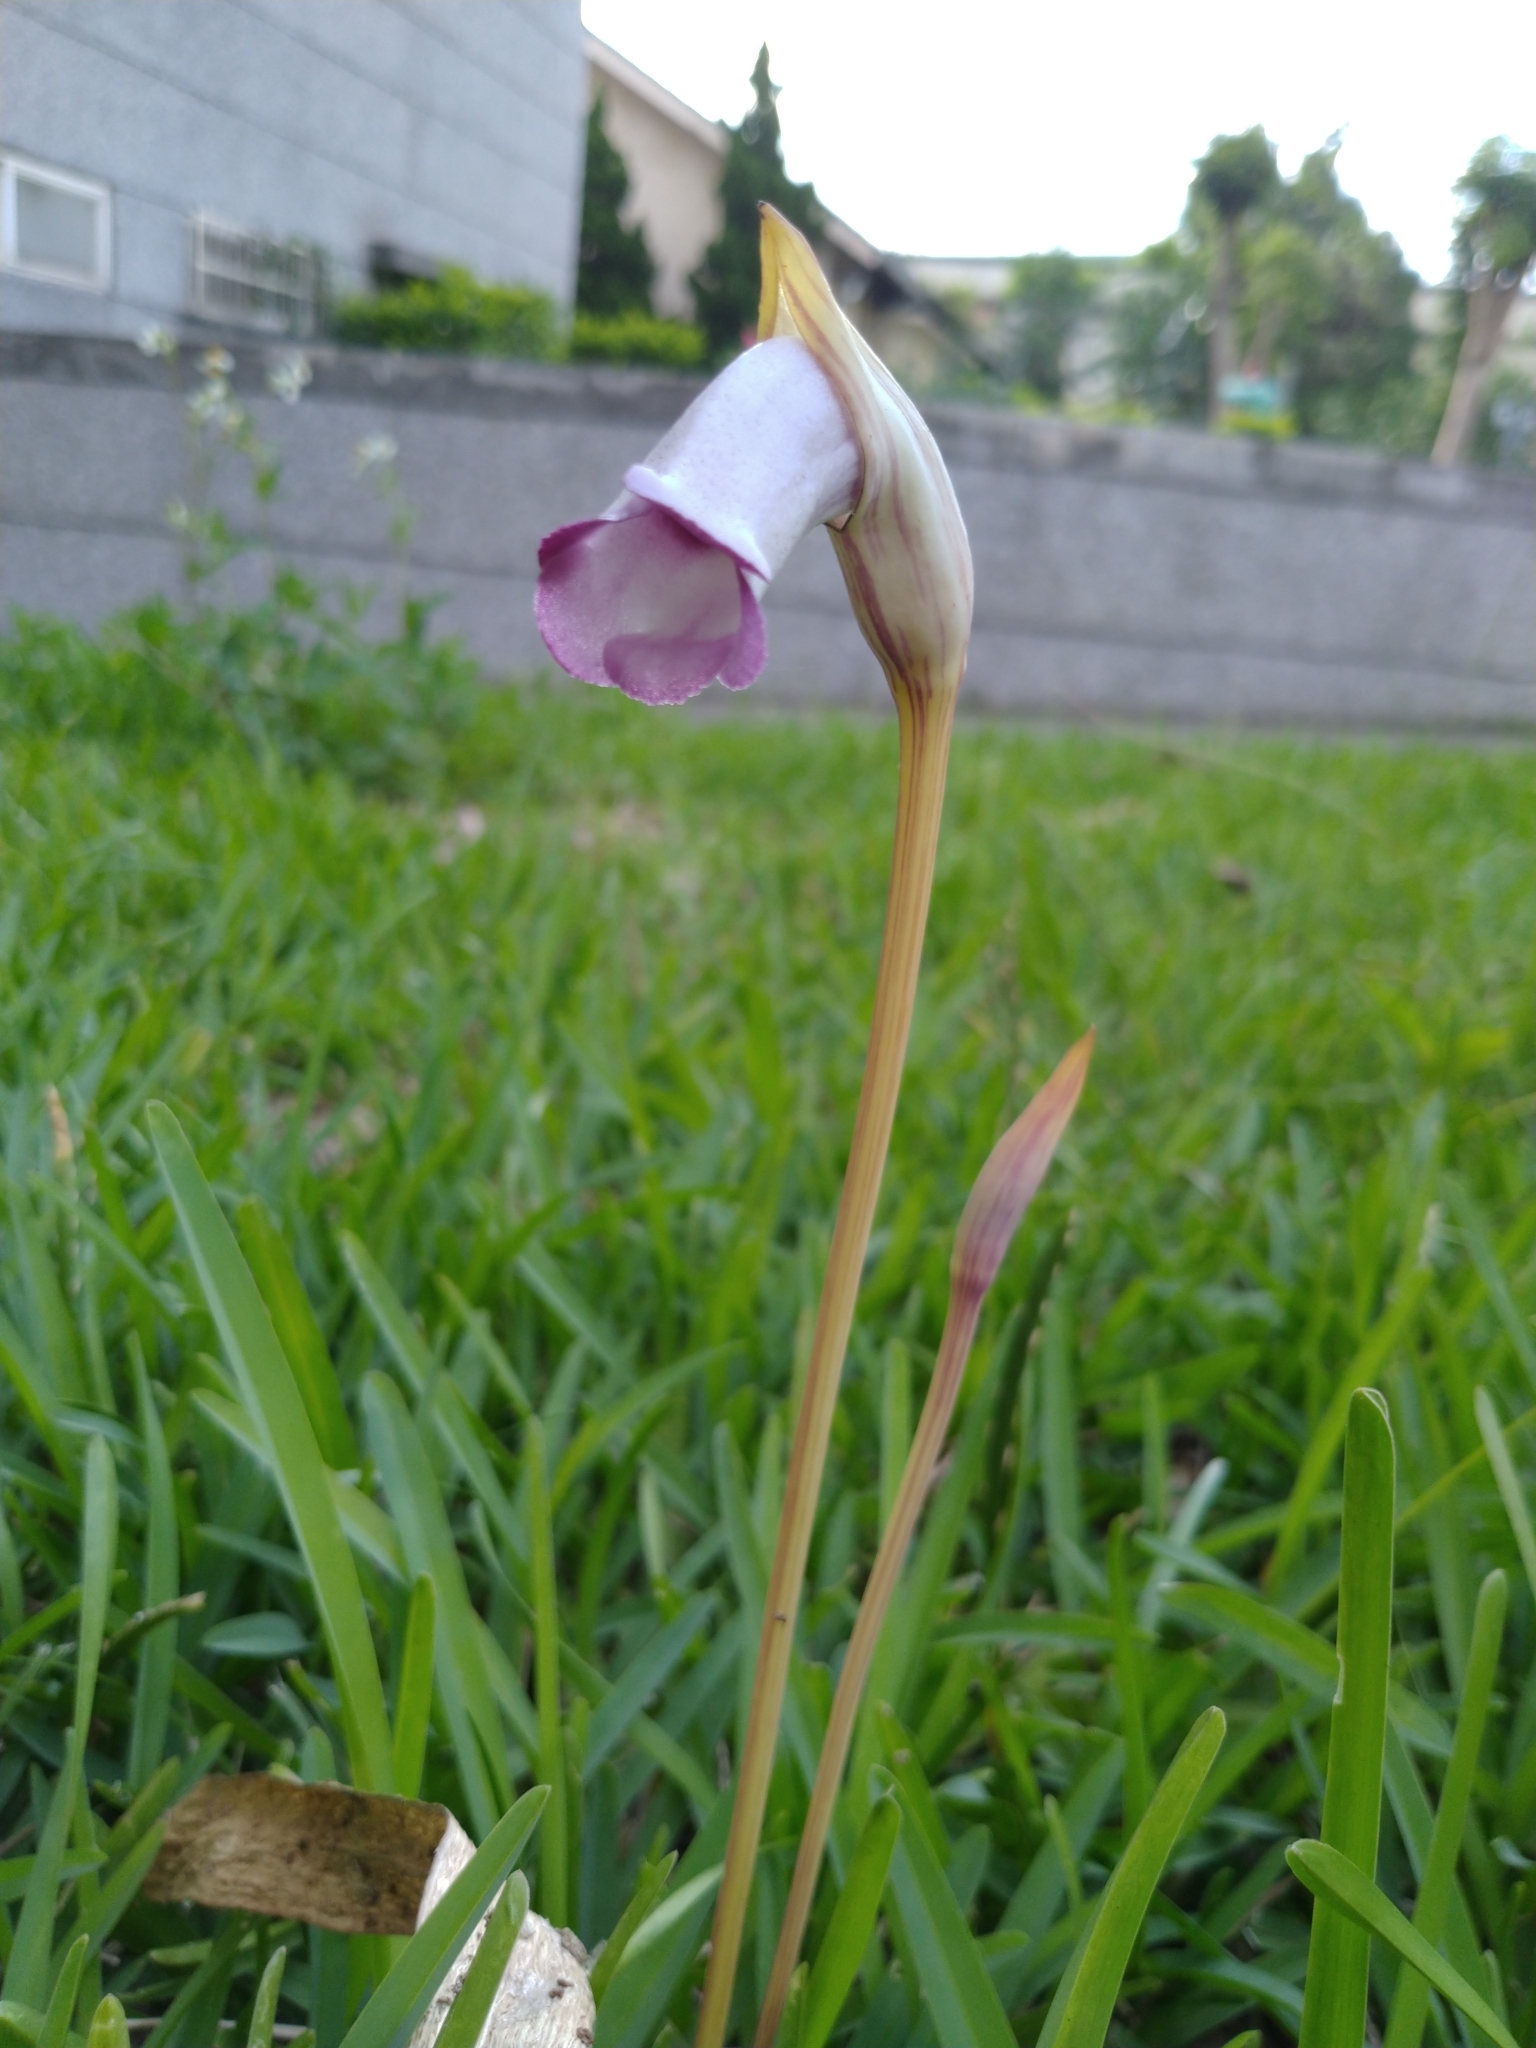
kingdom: Plantae
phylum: Tracheophyta
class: Magnoliopsida
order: Lamiales
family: Orobanchaceae
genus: Aeginetia
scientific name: Aeginetia indica
